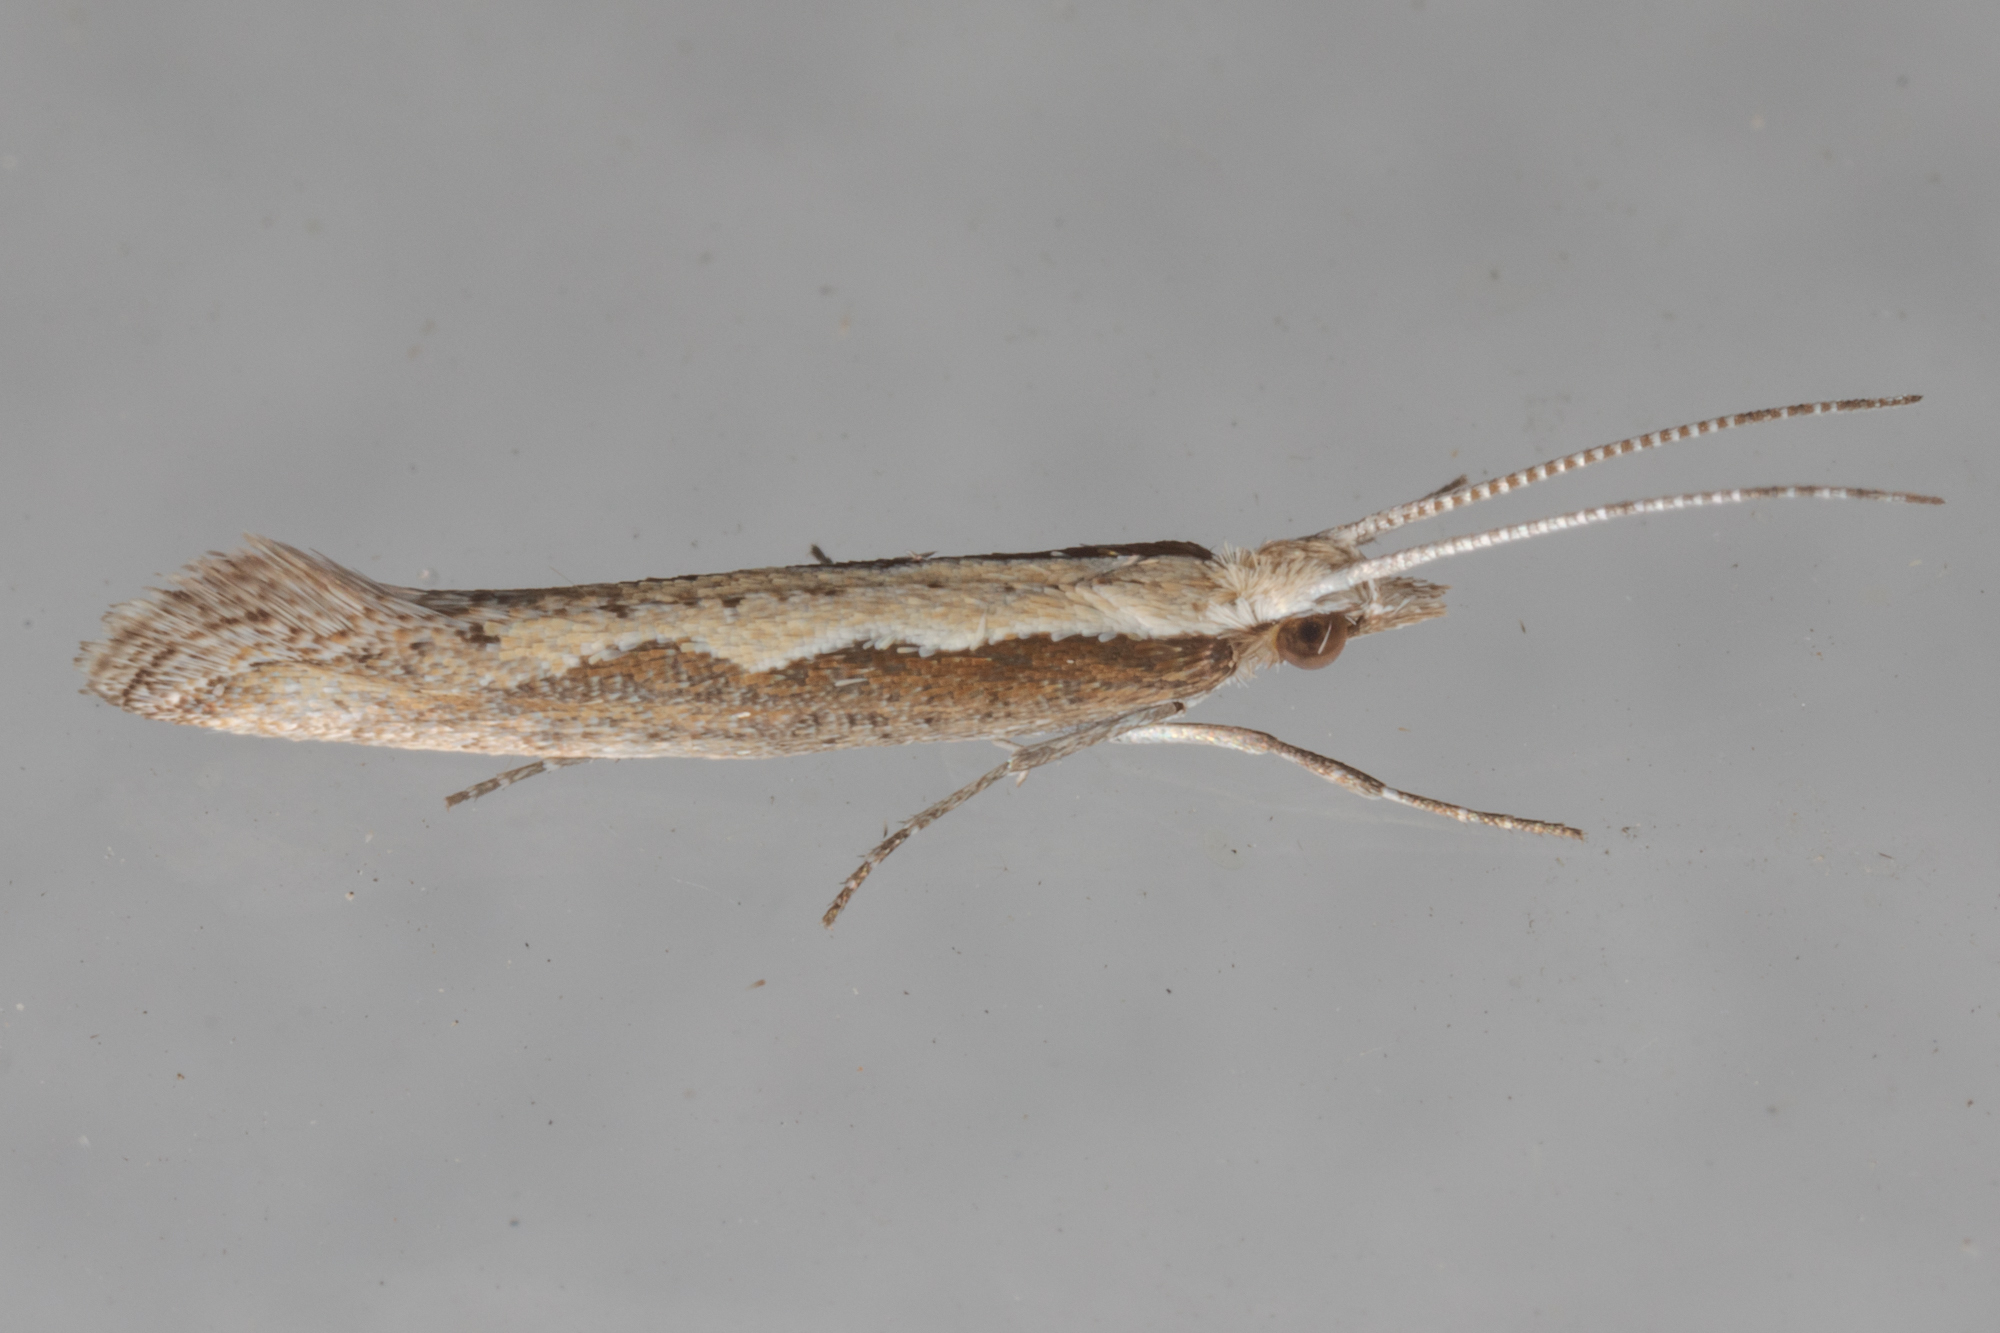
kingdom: Animalia
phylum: Arthropoda
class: Insecta
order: Lepidoptera
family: Plutellidae
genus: Plutella
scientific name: Plutella xylostella
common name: Diamond-back moth
